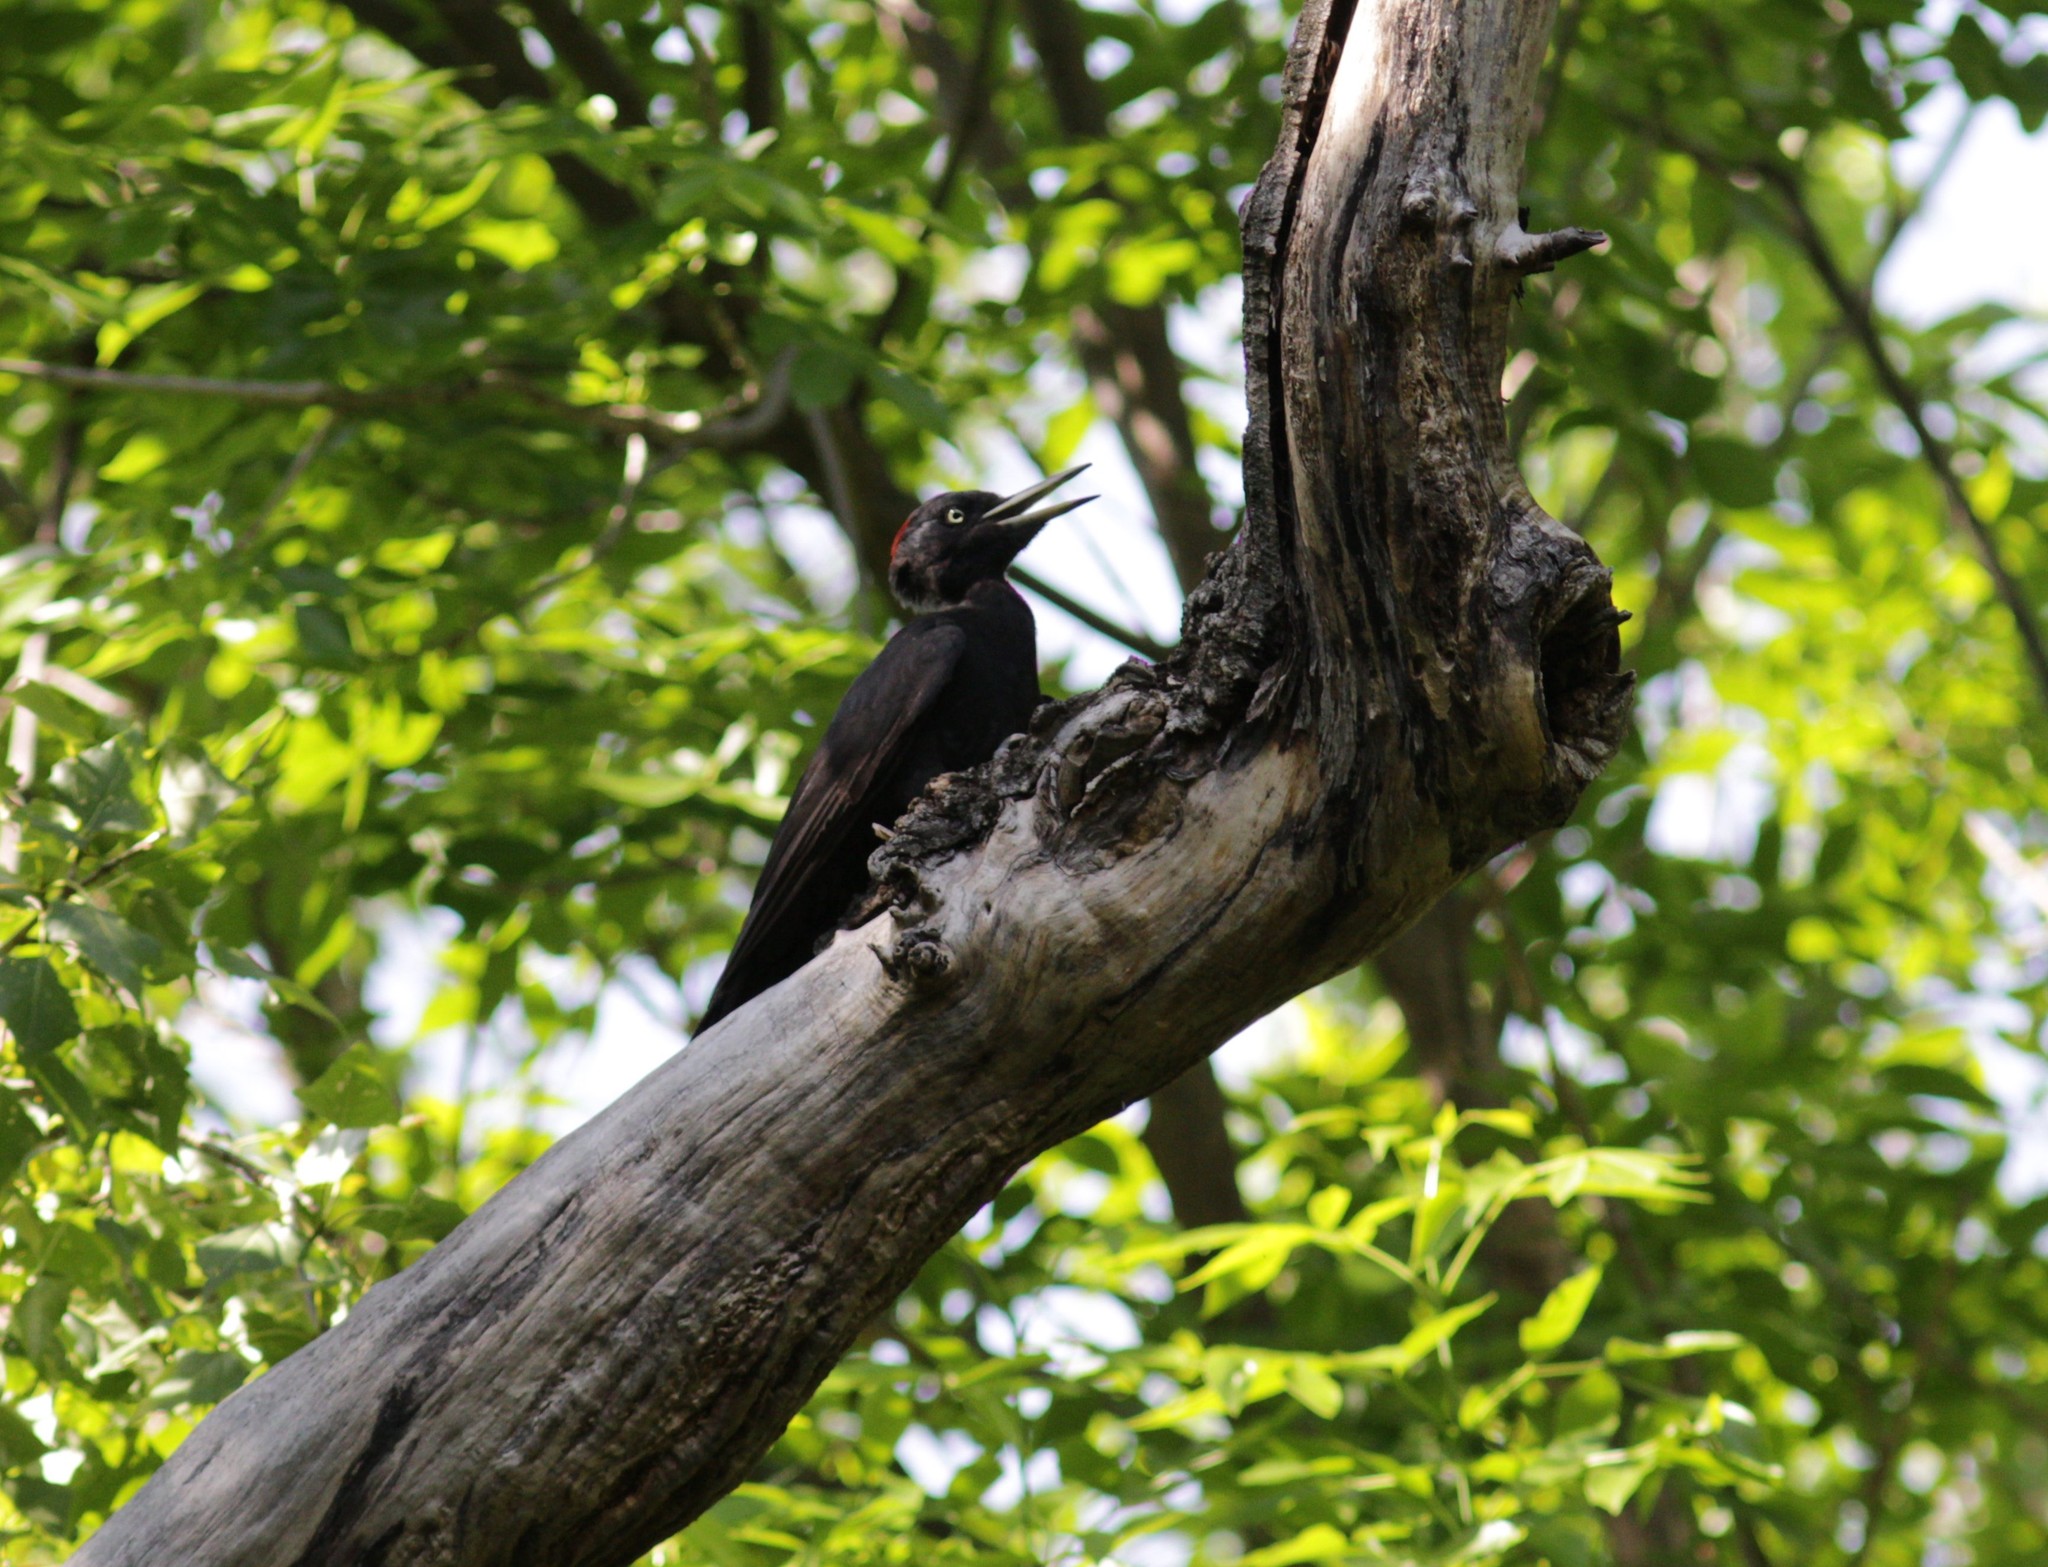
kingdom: Animalia
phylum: Chordata
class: Aves
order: Piciformes
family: Picidae
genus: Dryocopus
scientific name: Dryocopus martius
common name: Black woodpecker
